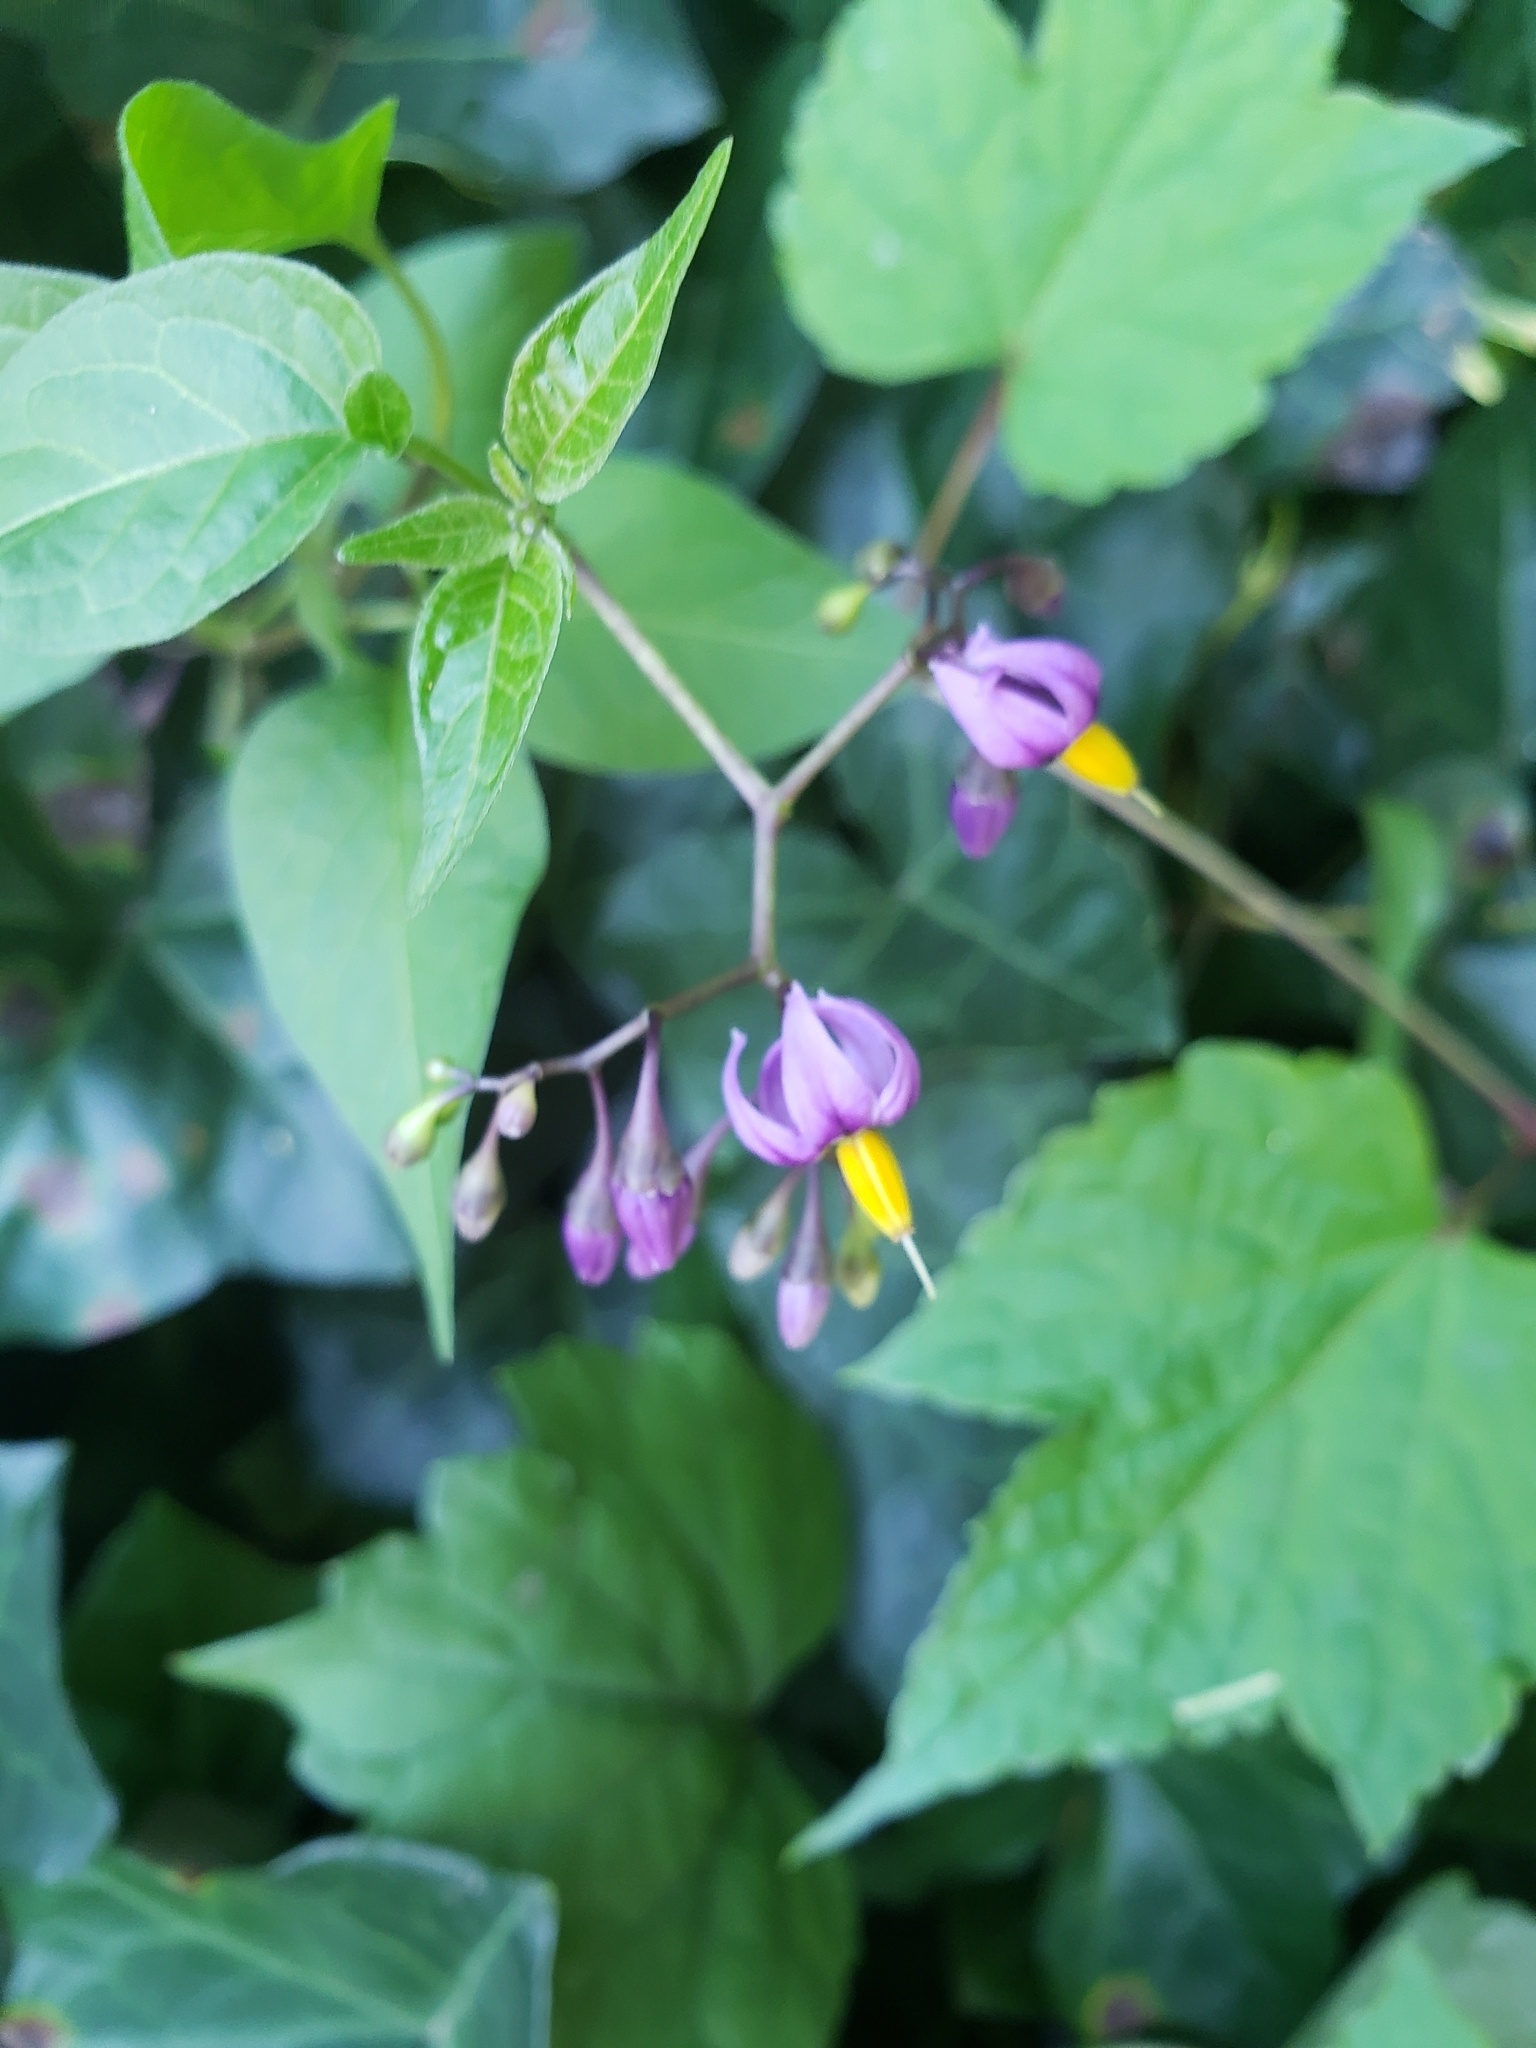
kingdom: Plantae
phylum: Tracheophyta
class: Magnoliopsida
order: Solanales
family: Solanaceae
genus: Solanum
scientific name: Solanum dulcamara
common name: Climbing nightshade
